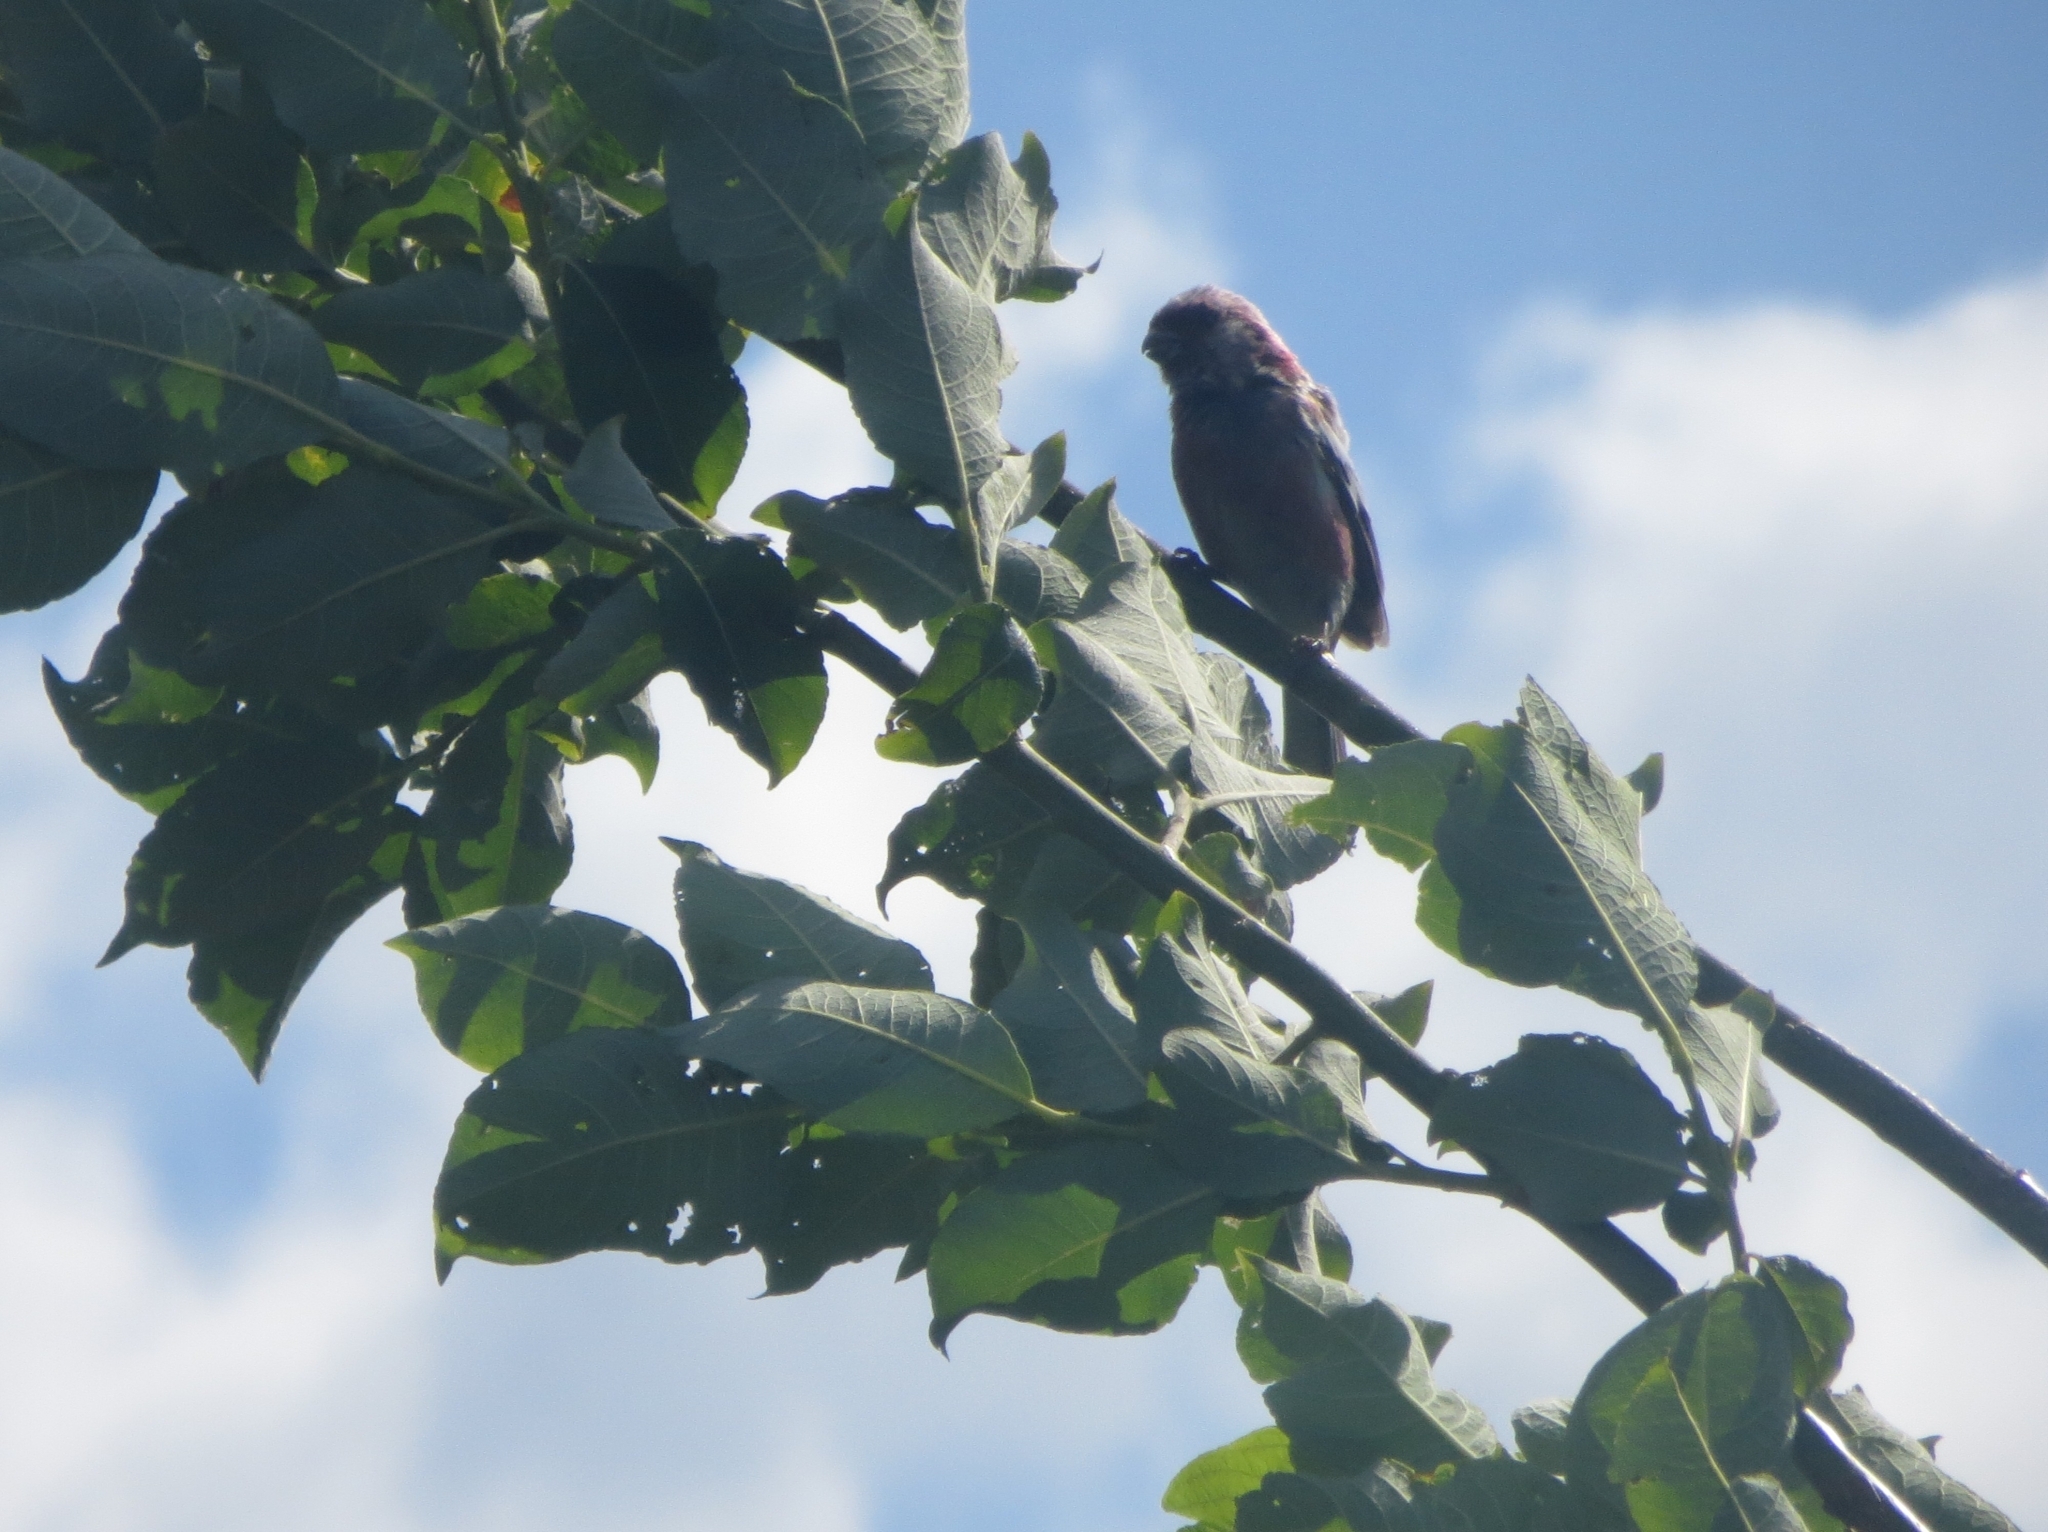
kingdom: Animalia
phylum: Chordata
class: Aves
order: Passeriformes
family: Fringillidae
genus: Carpodacus
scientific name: Carpodacus sibiricus
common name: Long-tailed rosefinch
